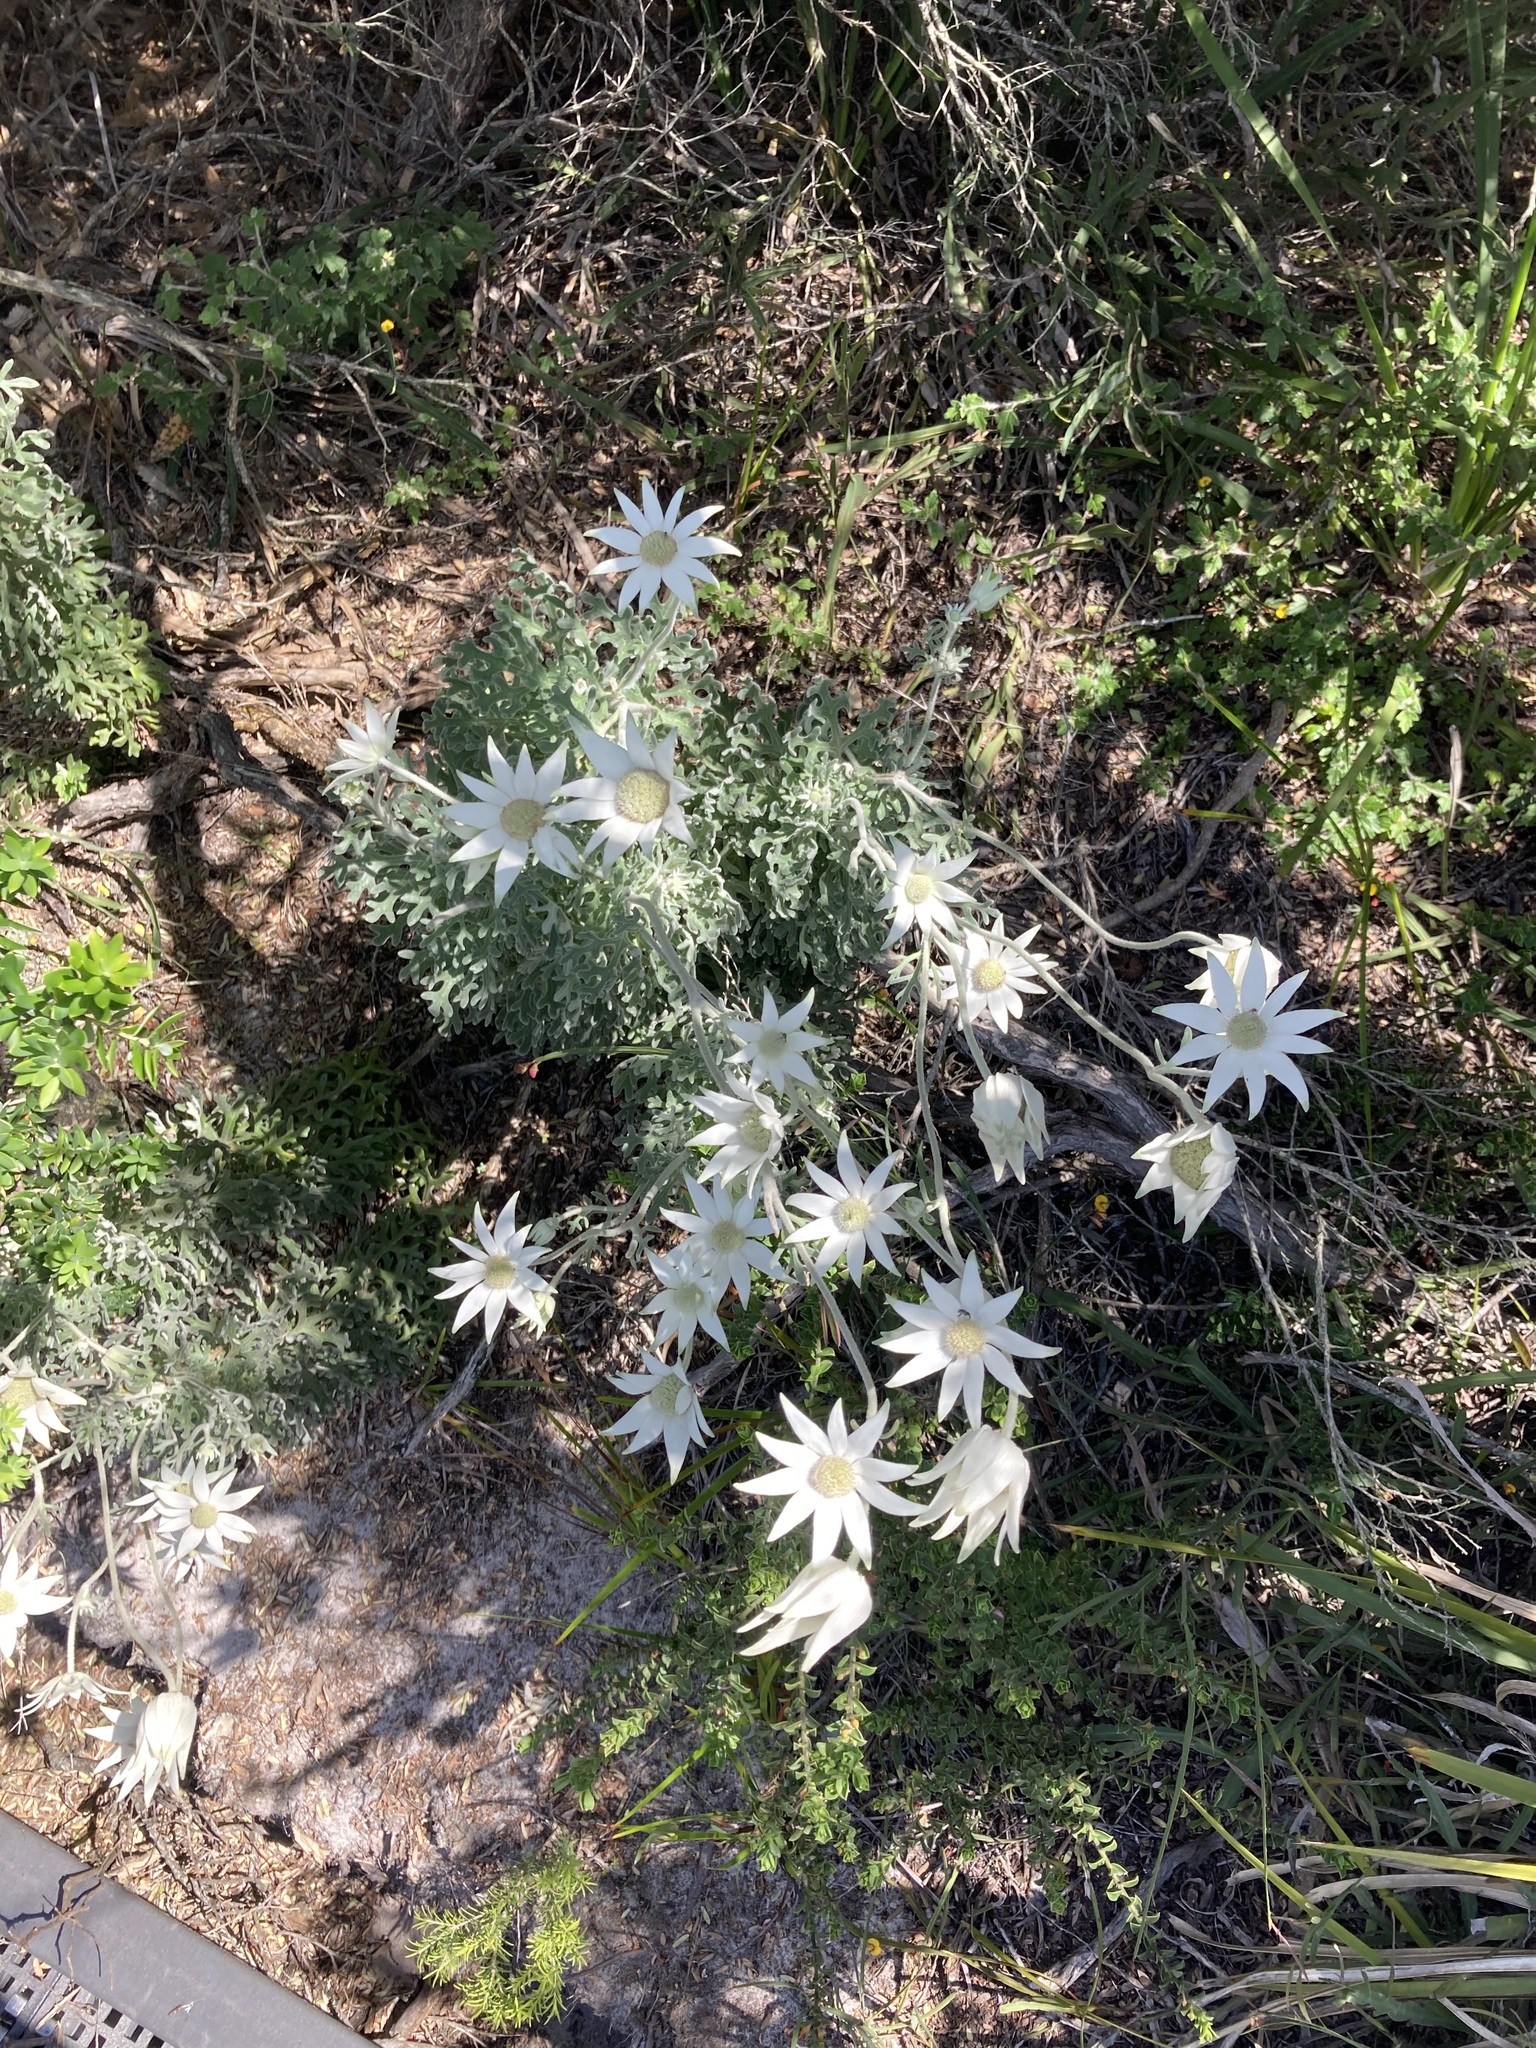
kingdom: Plantae
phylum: Tracheophyta
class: Magnoliopsida
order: Apiales
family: Apiaceae
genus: Actinotus
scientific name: Actinotus helianthi
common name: Flannel-flower
